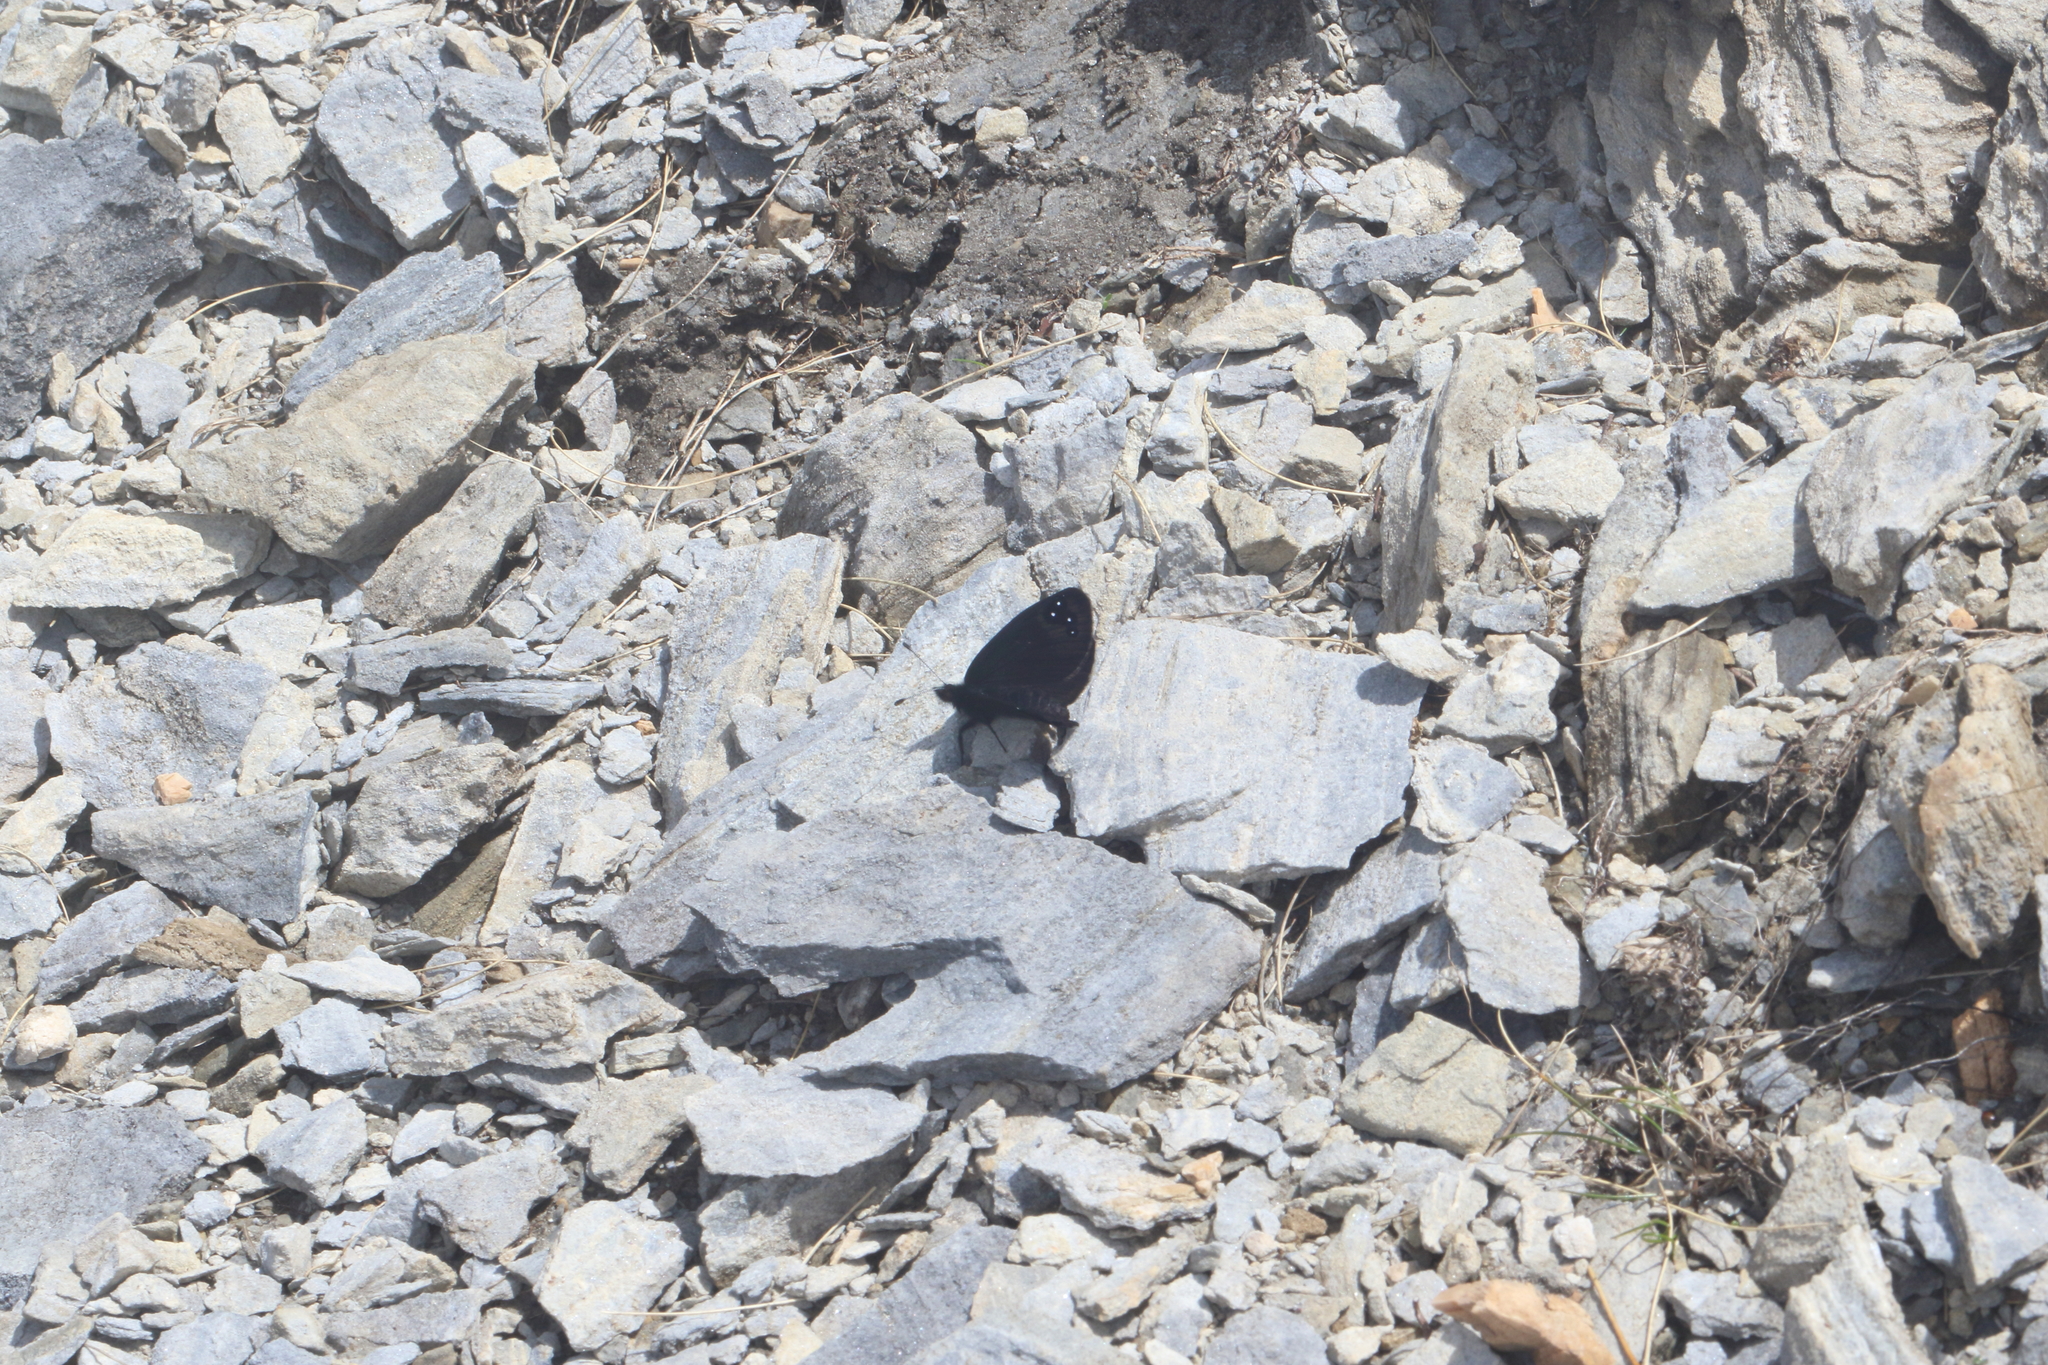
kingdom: Animalia
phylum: Arthropoda
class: Insecta
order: Lepidoptera
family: Nymphalidae
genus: Erebia
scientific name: Erebia Percnodaimon merula
